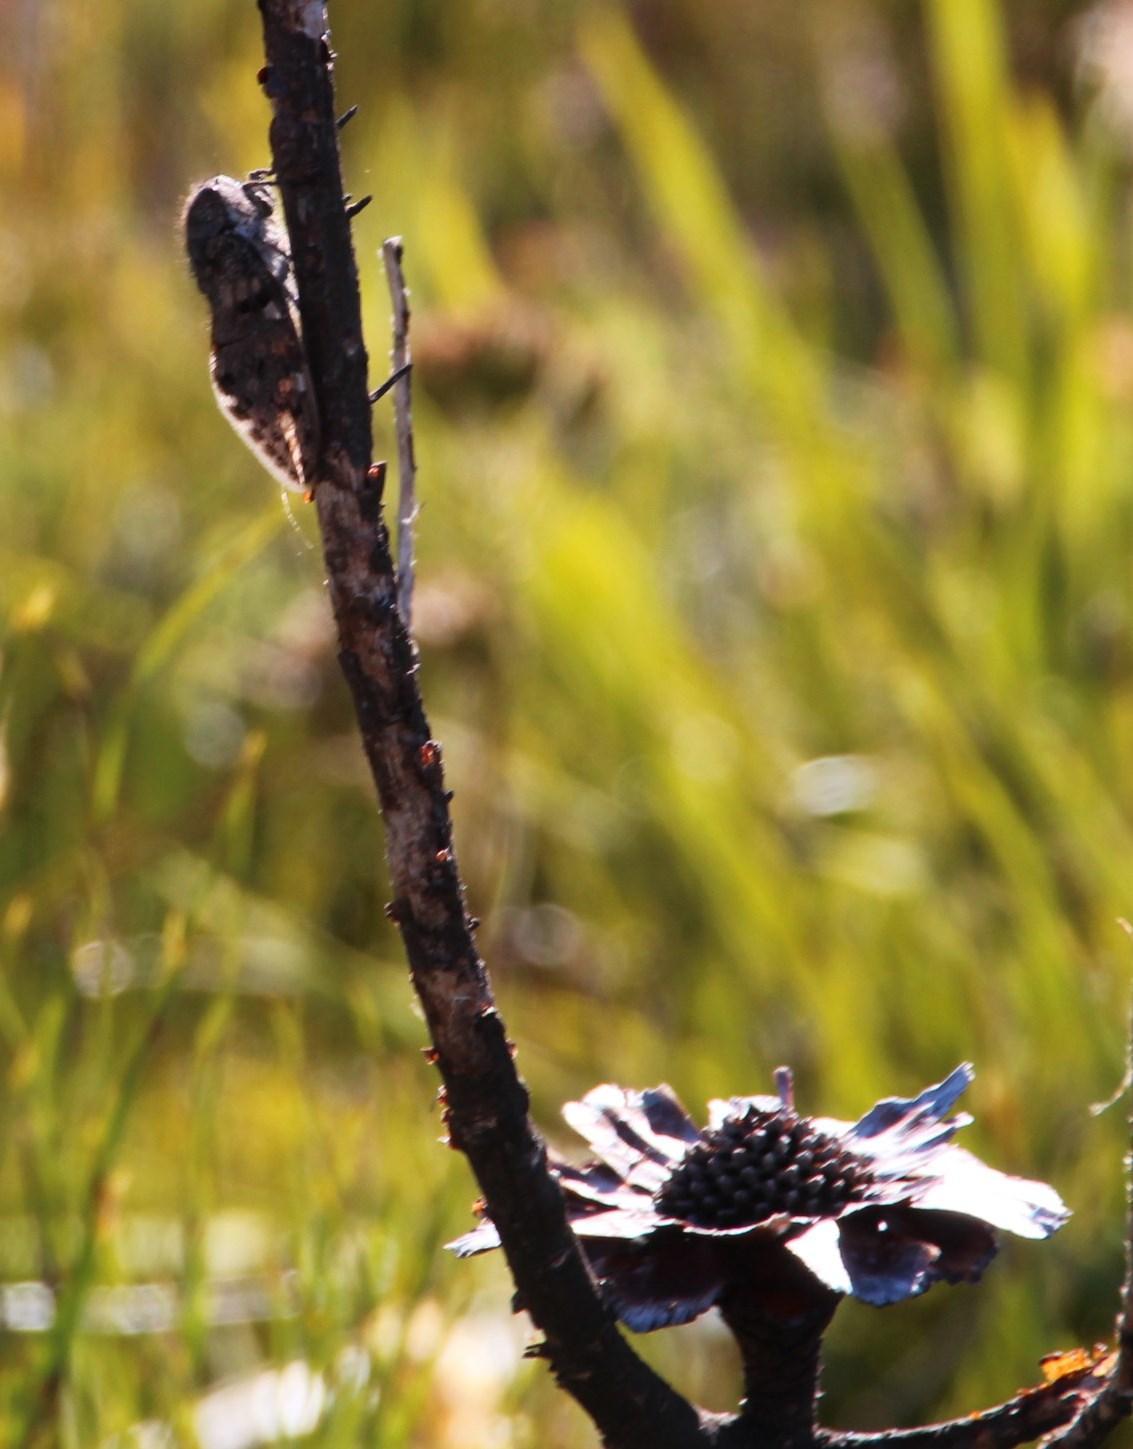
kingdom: Plantae
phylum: Tracheophyta
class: Magnoliopsida
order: Proteales
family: Proteaceae
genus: Protea
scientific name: Protea repens
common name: Sugarbush
